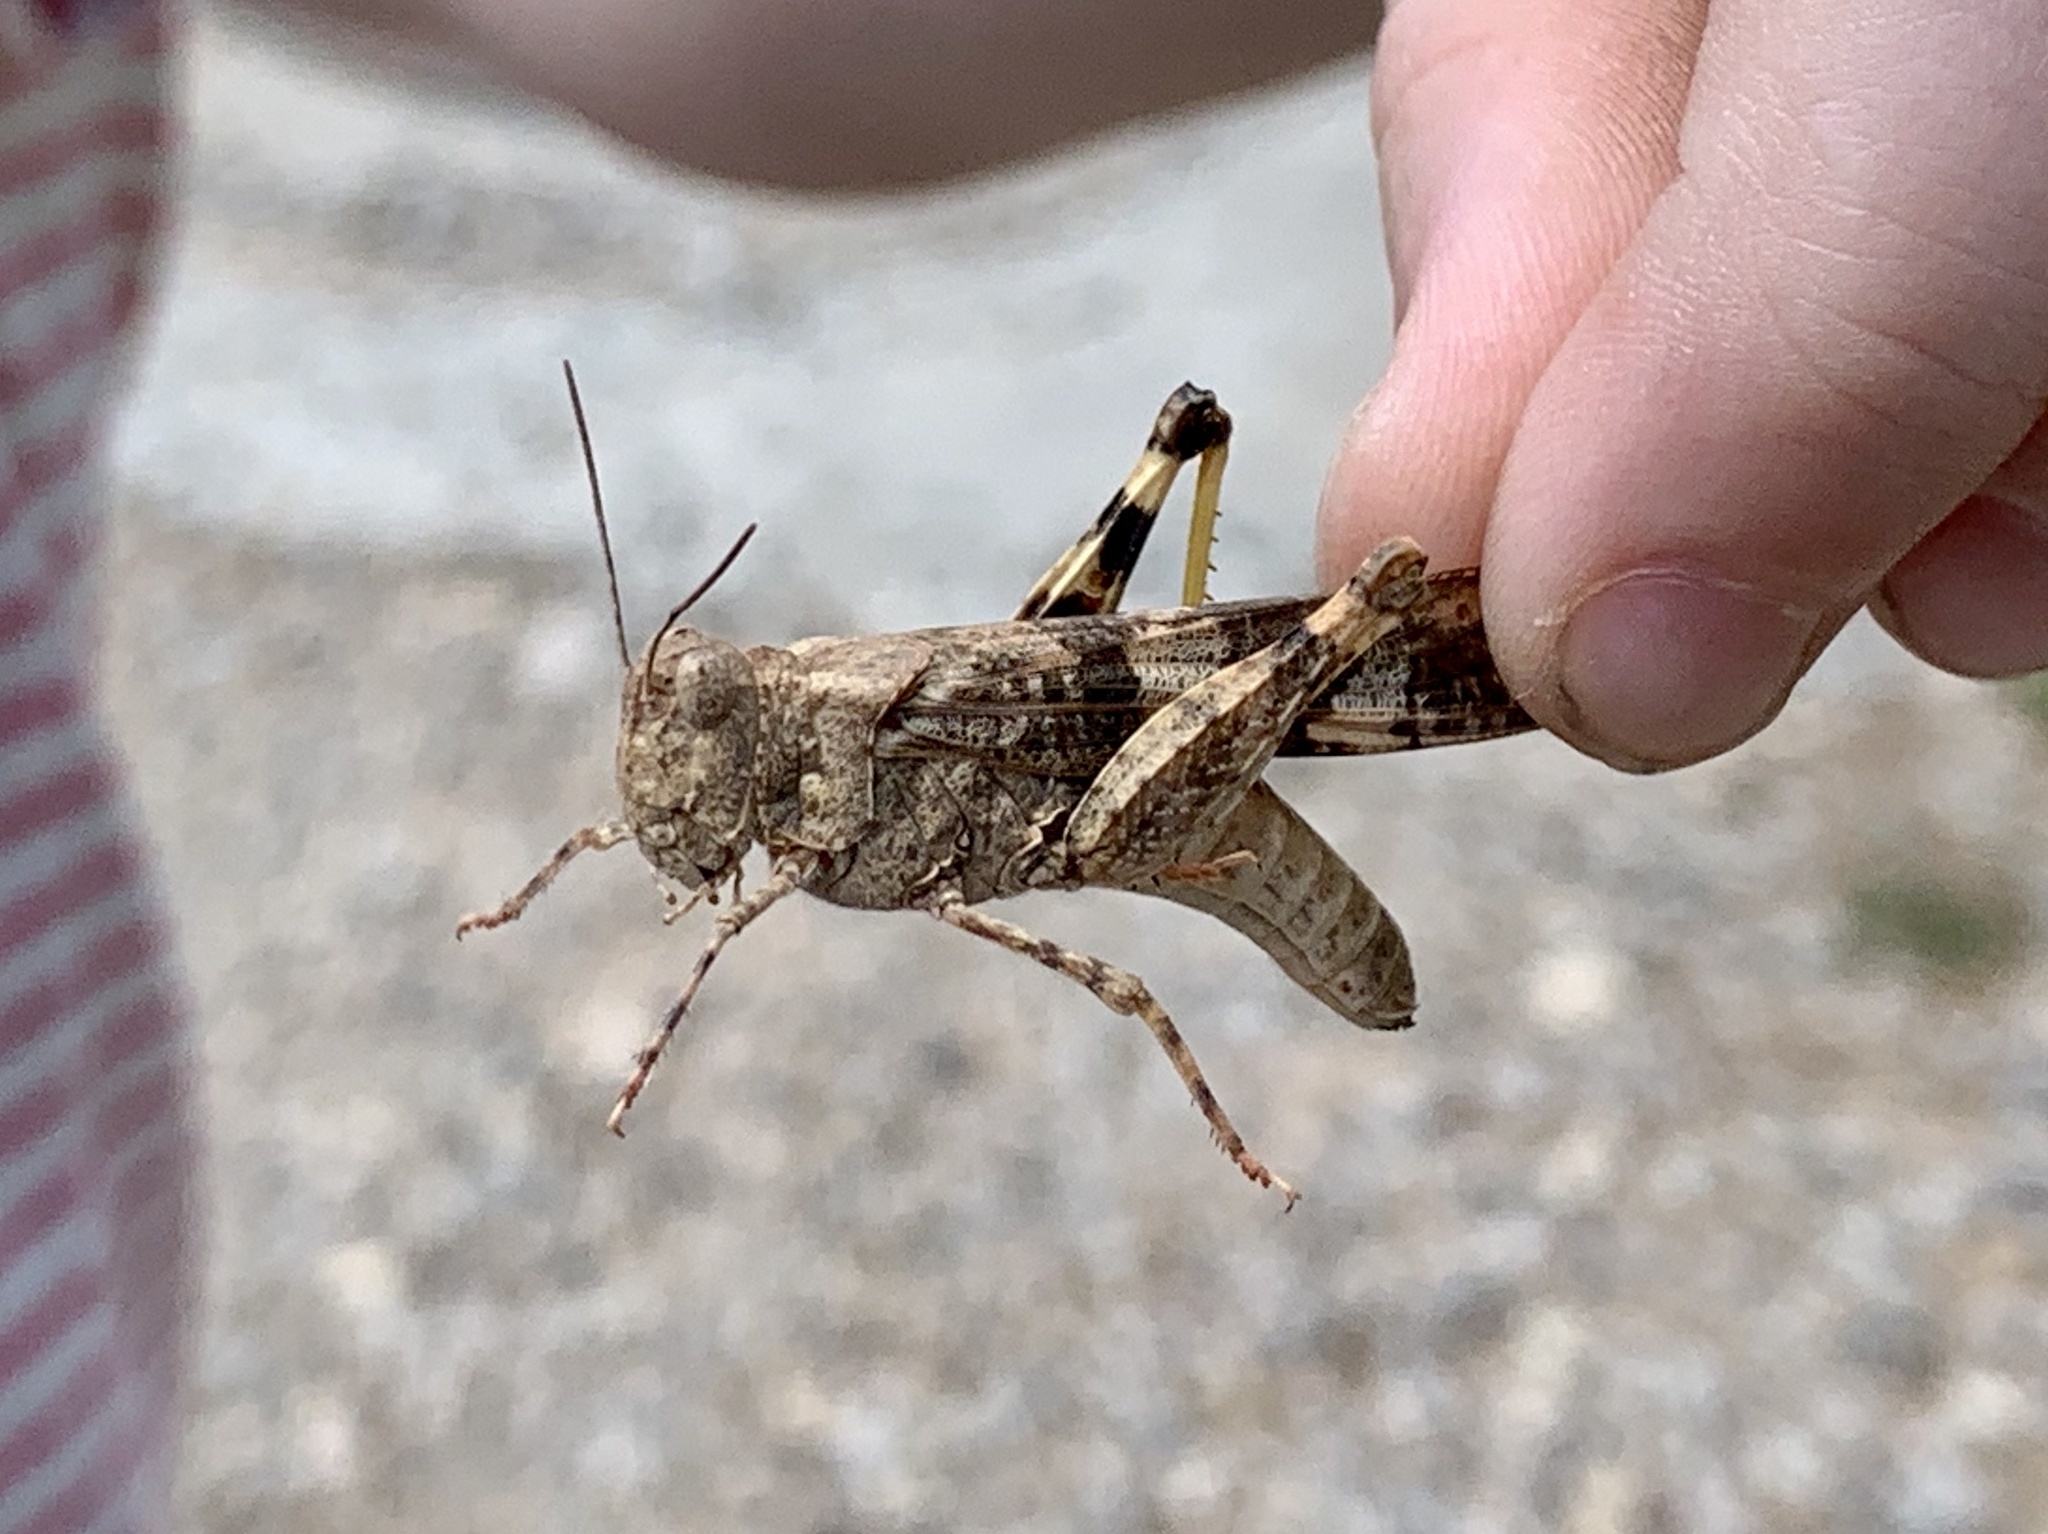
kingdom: Animalia
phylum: Arthropoda
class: Insecta
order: Orthoptera
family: Acrididae
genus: Trimerotropis
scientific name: Trimerotropis pallidipennis
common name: Pallid-winged grasshopper
